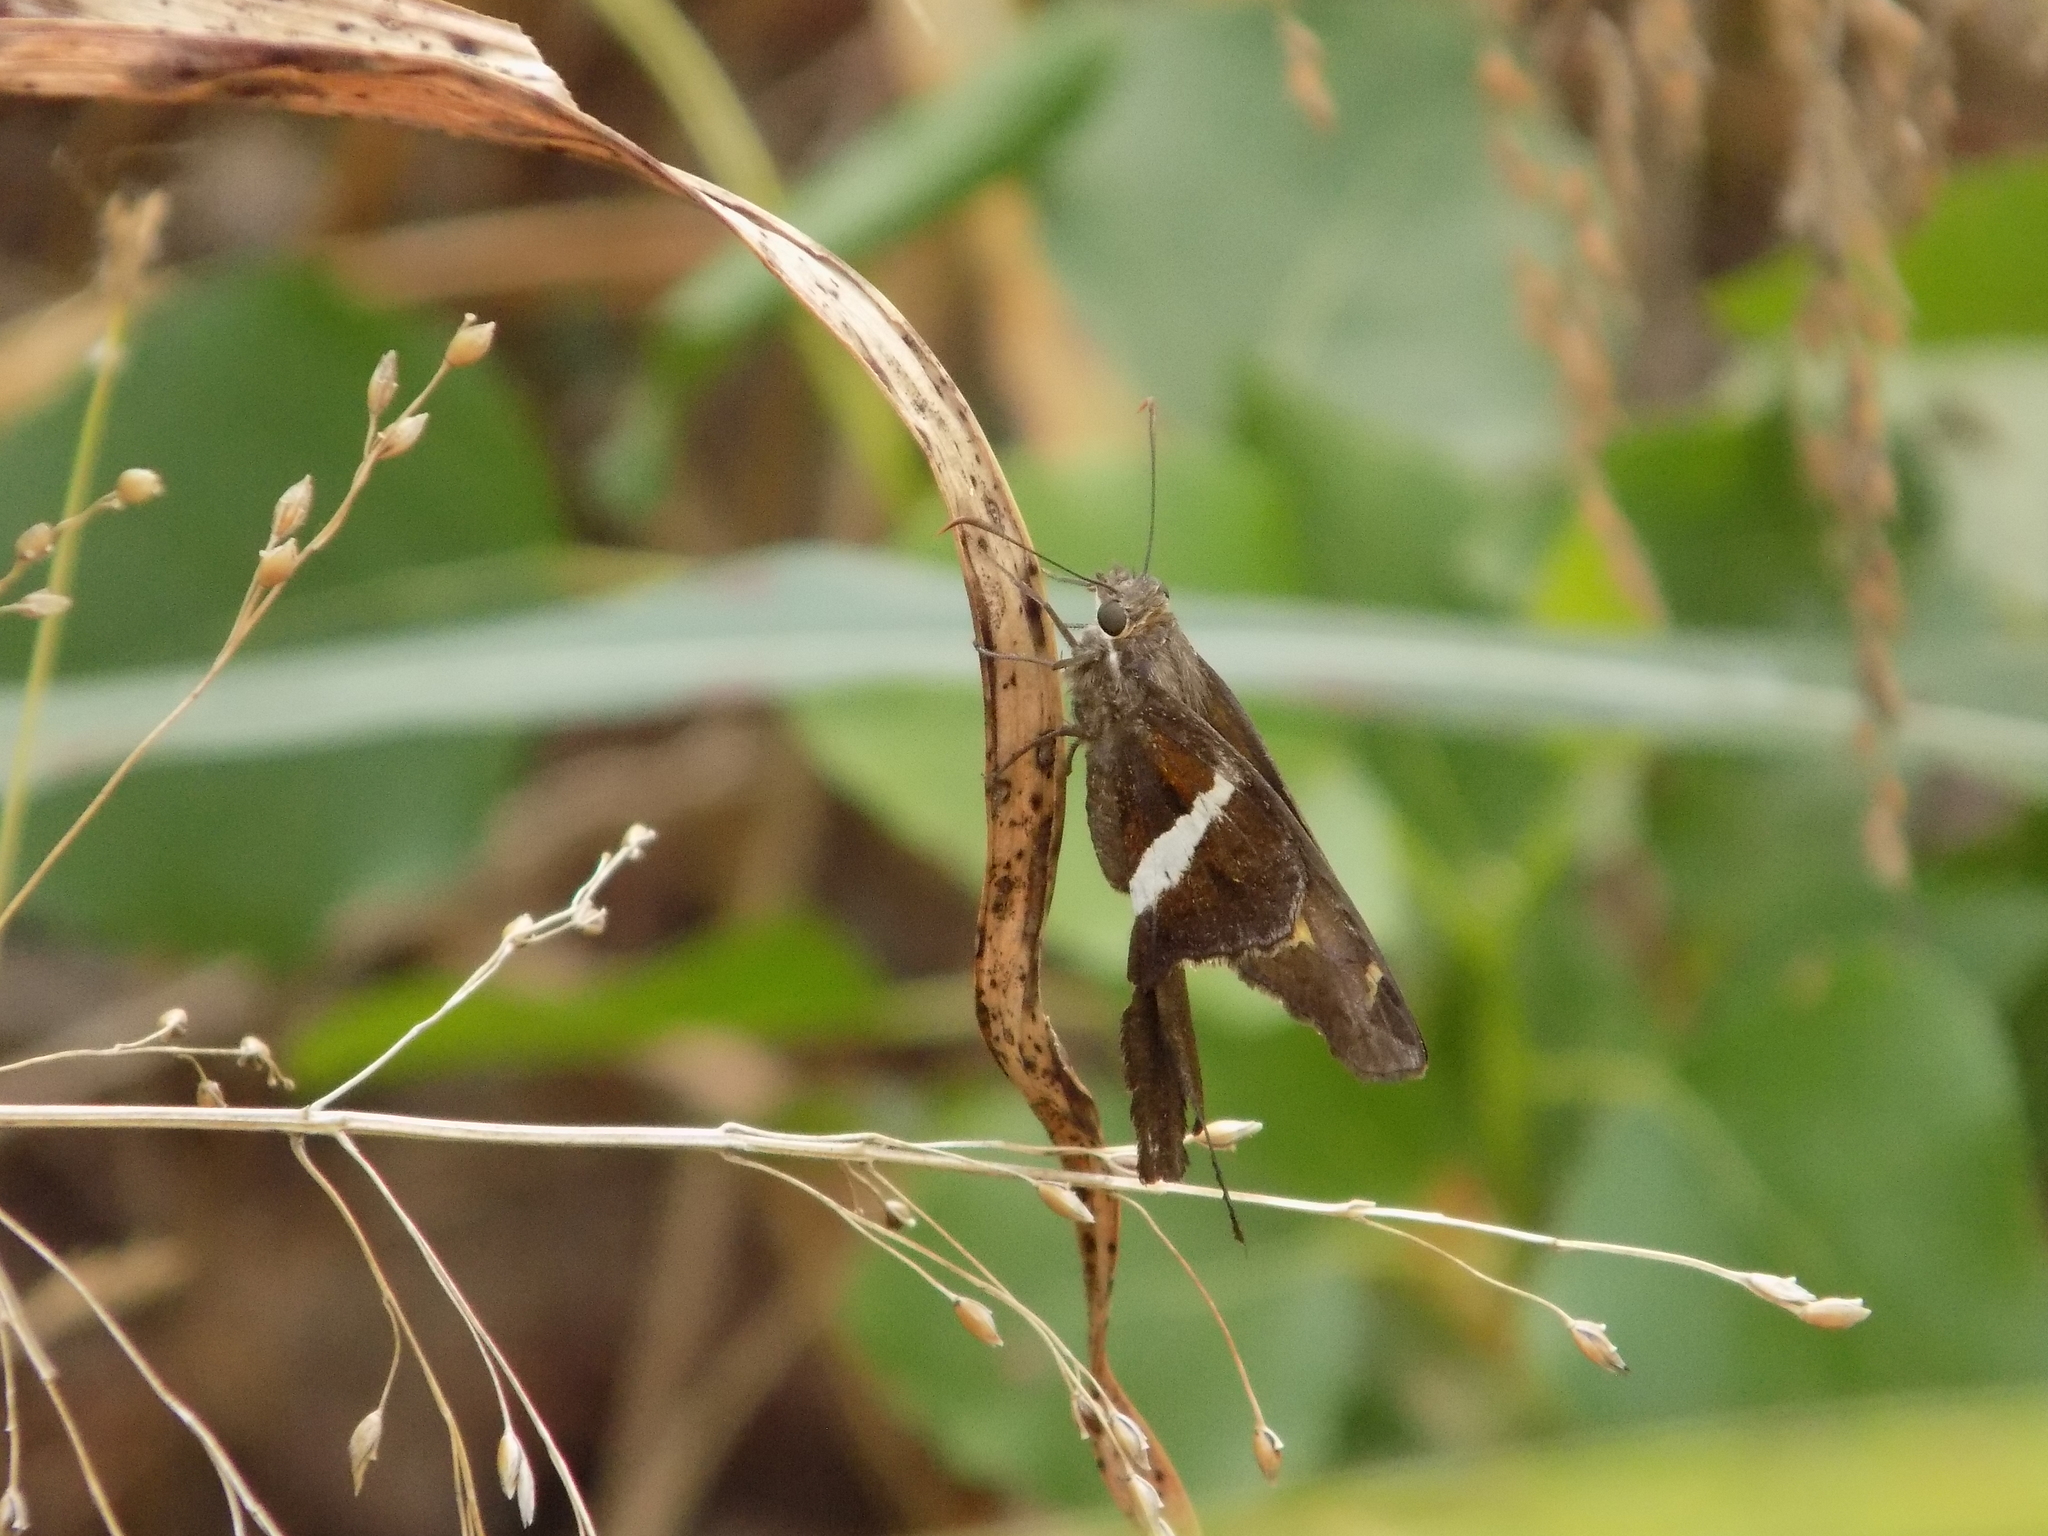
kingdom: Animalia
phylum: Arthropoda
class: Insecta
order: Lepidoptera
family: Hesperiidae
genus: Chioides
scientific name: Chioides catillus
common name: Silverbanded skipper
